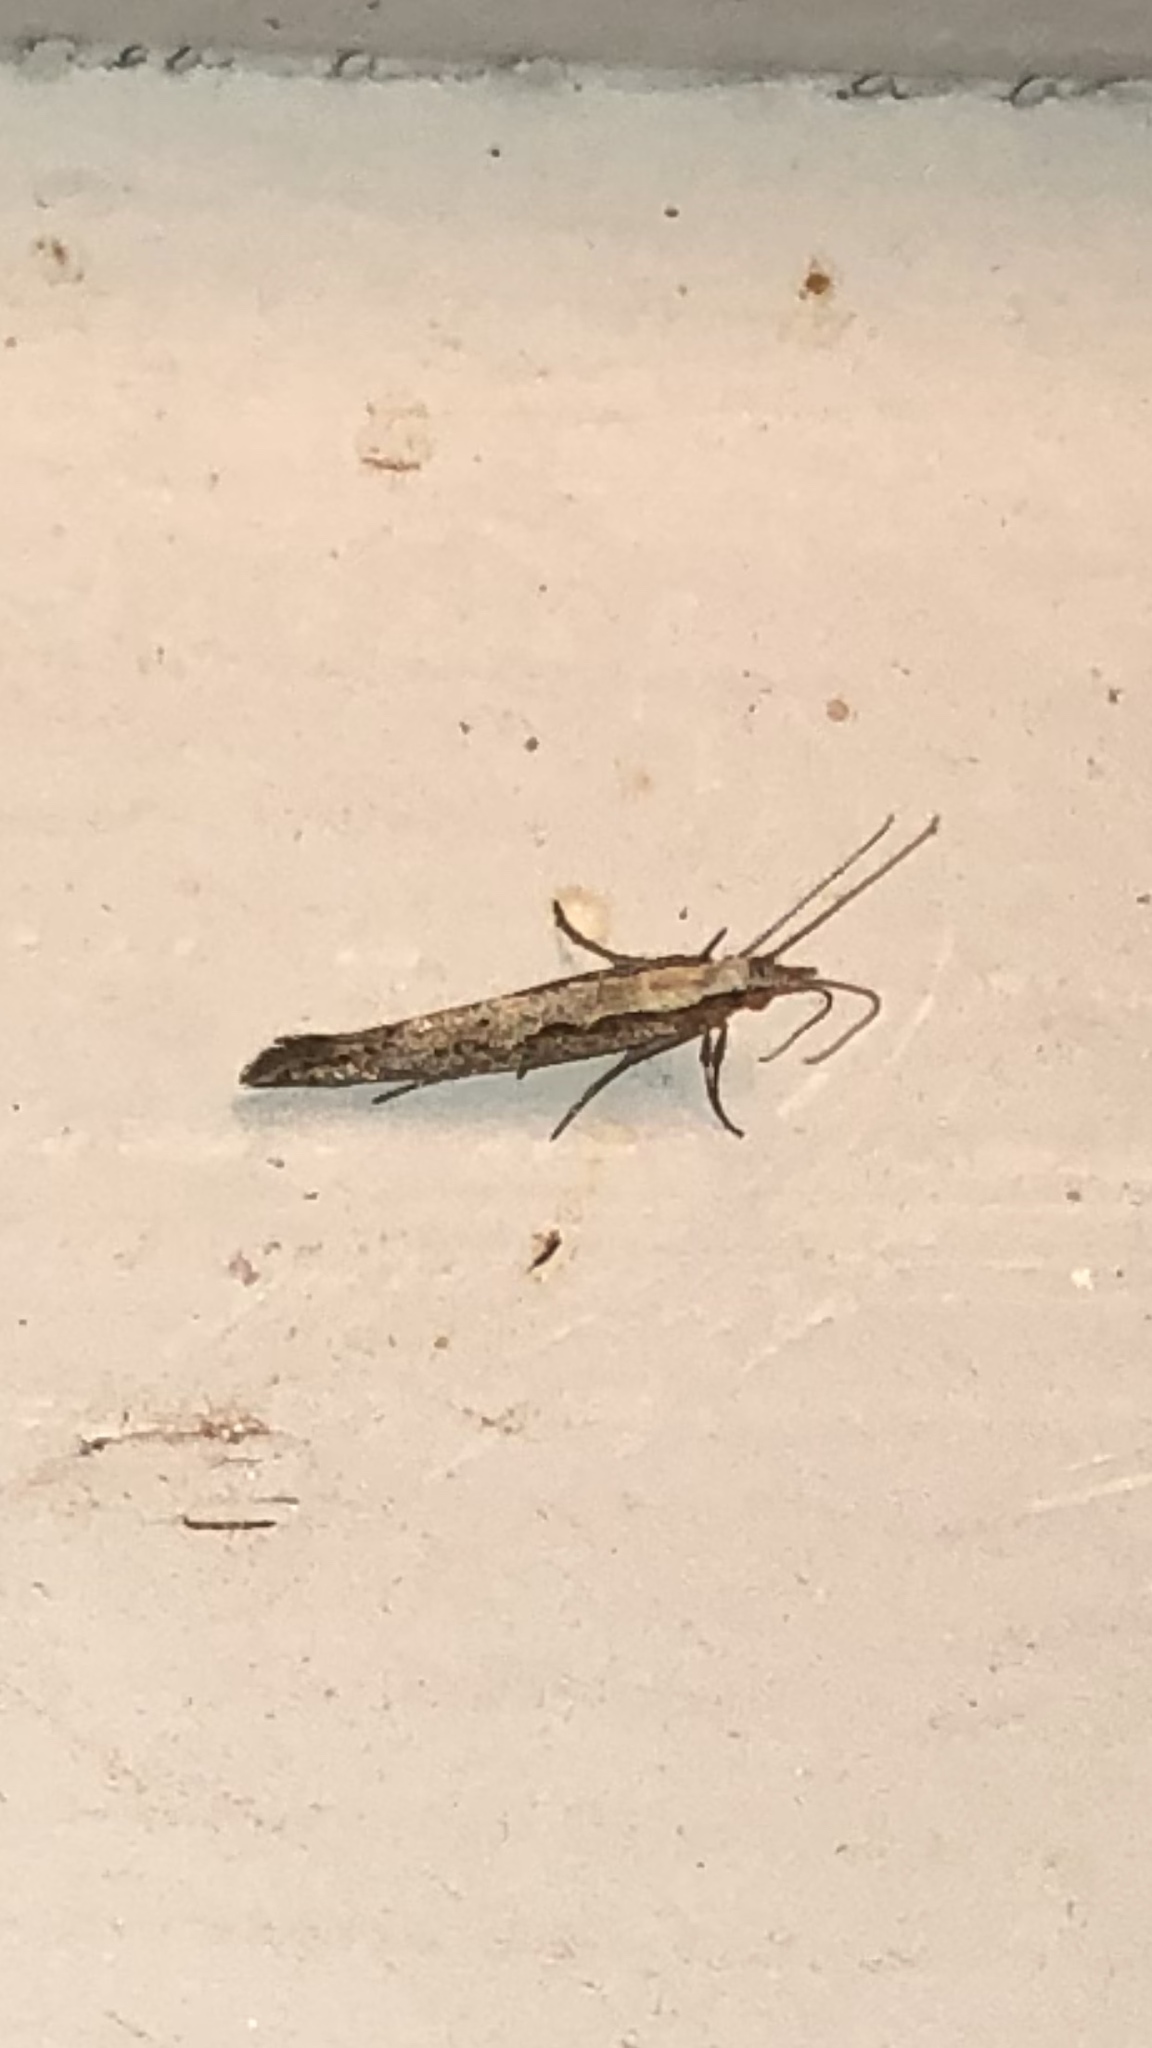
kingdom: Animalia
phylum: Arthropoda
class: Insecta
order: Lepidoptera
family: Plutellidae
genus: Plutella
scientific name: Plutella xylostella
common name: Diamond-back moth
